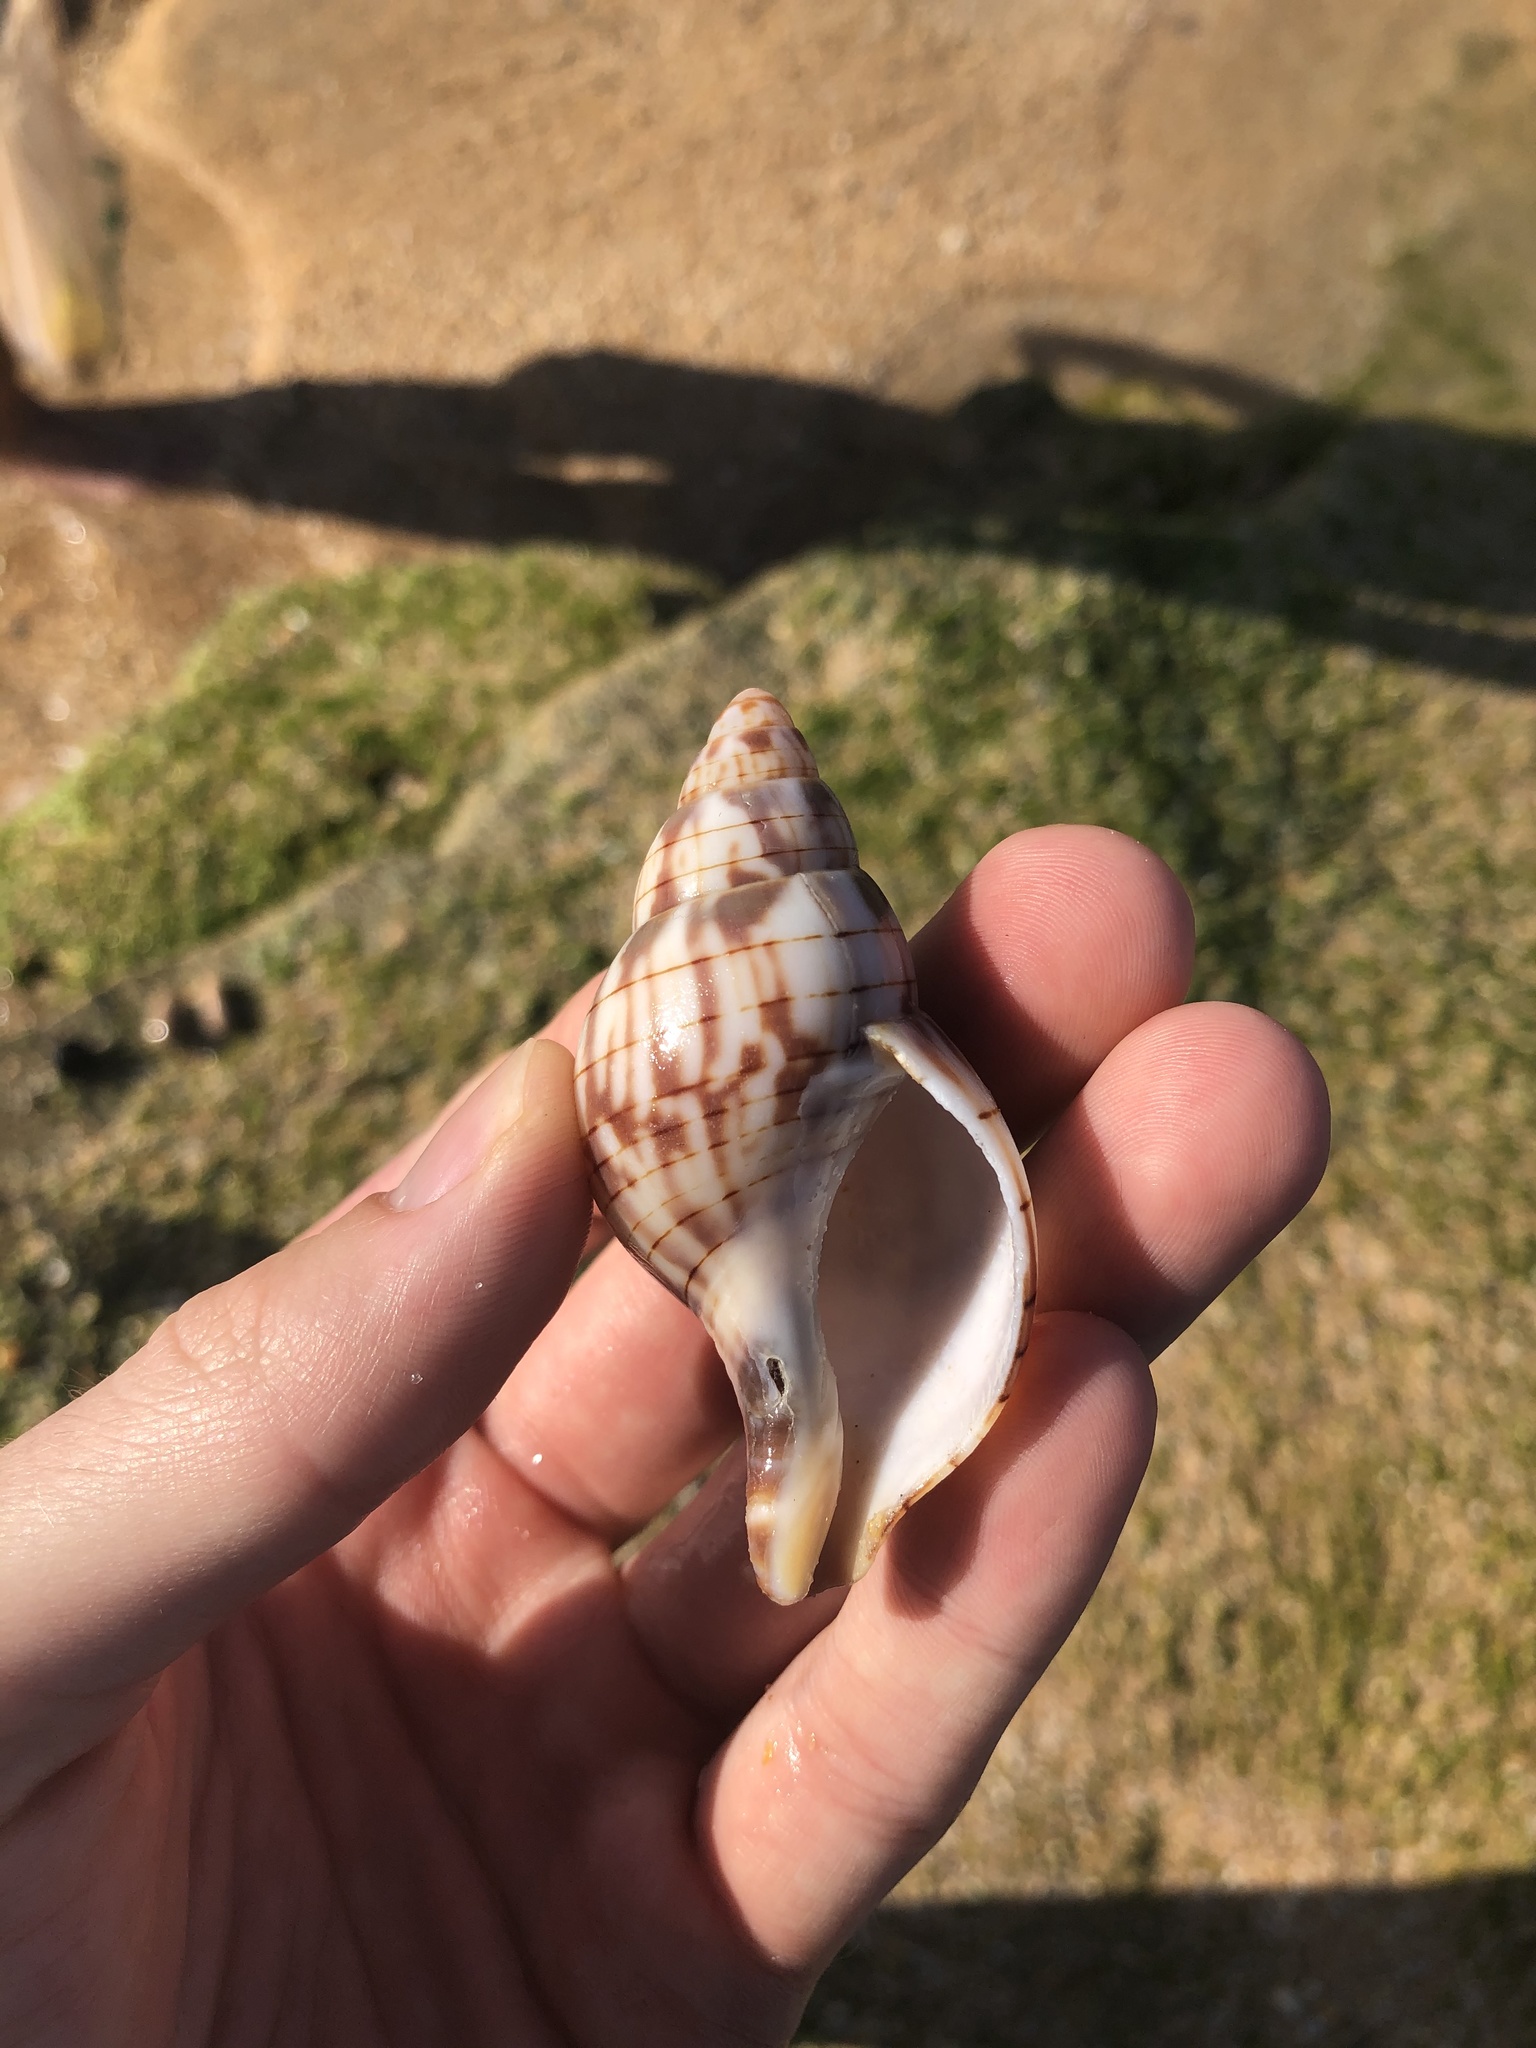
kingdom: Animalia
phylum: Mollusca
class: Gastropoda
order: Neogastropoda
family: Fasciolariidae
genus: Cinctura
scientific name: Cinctura hunteria
